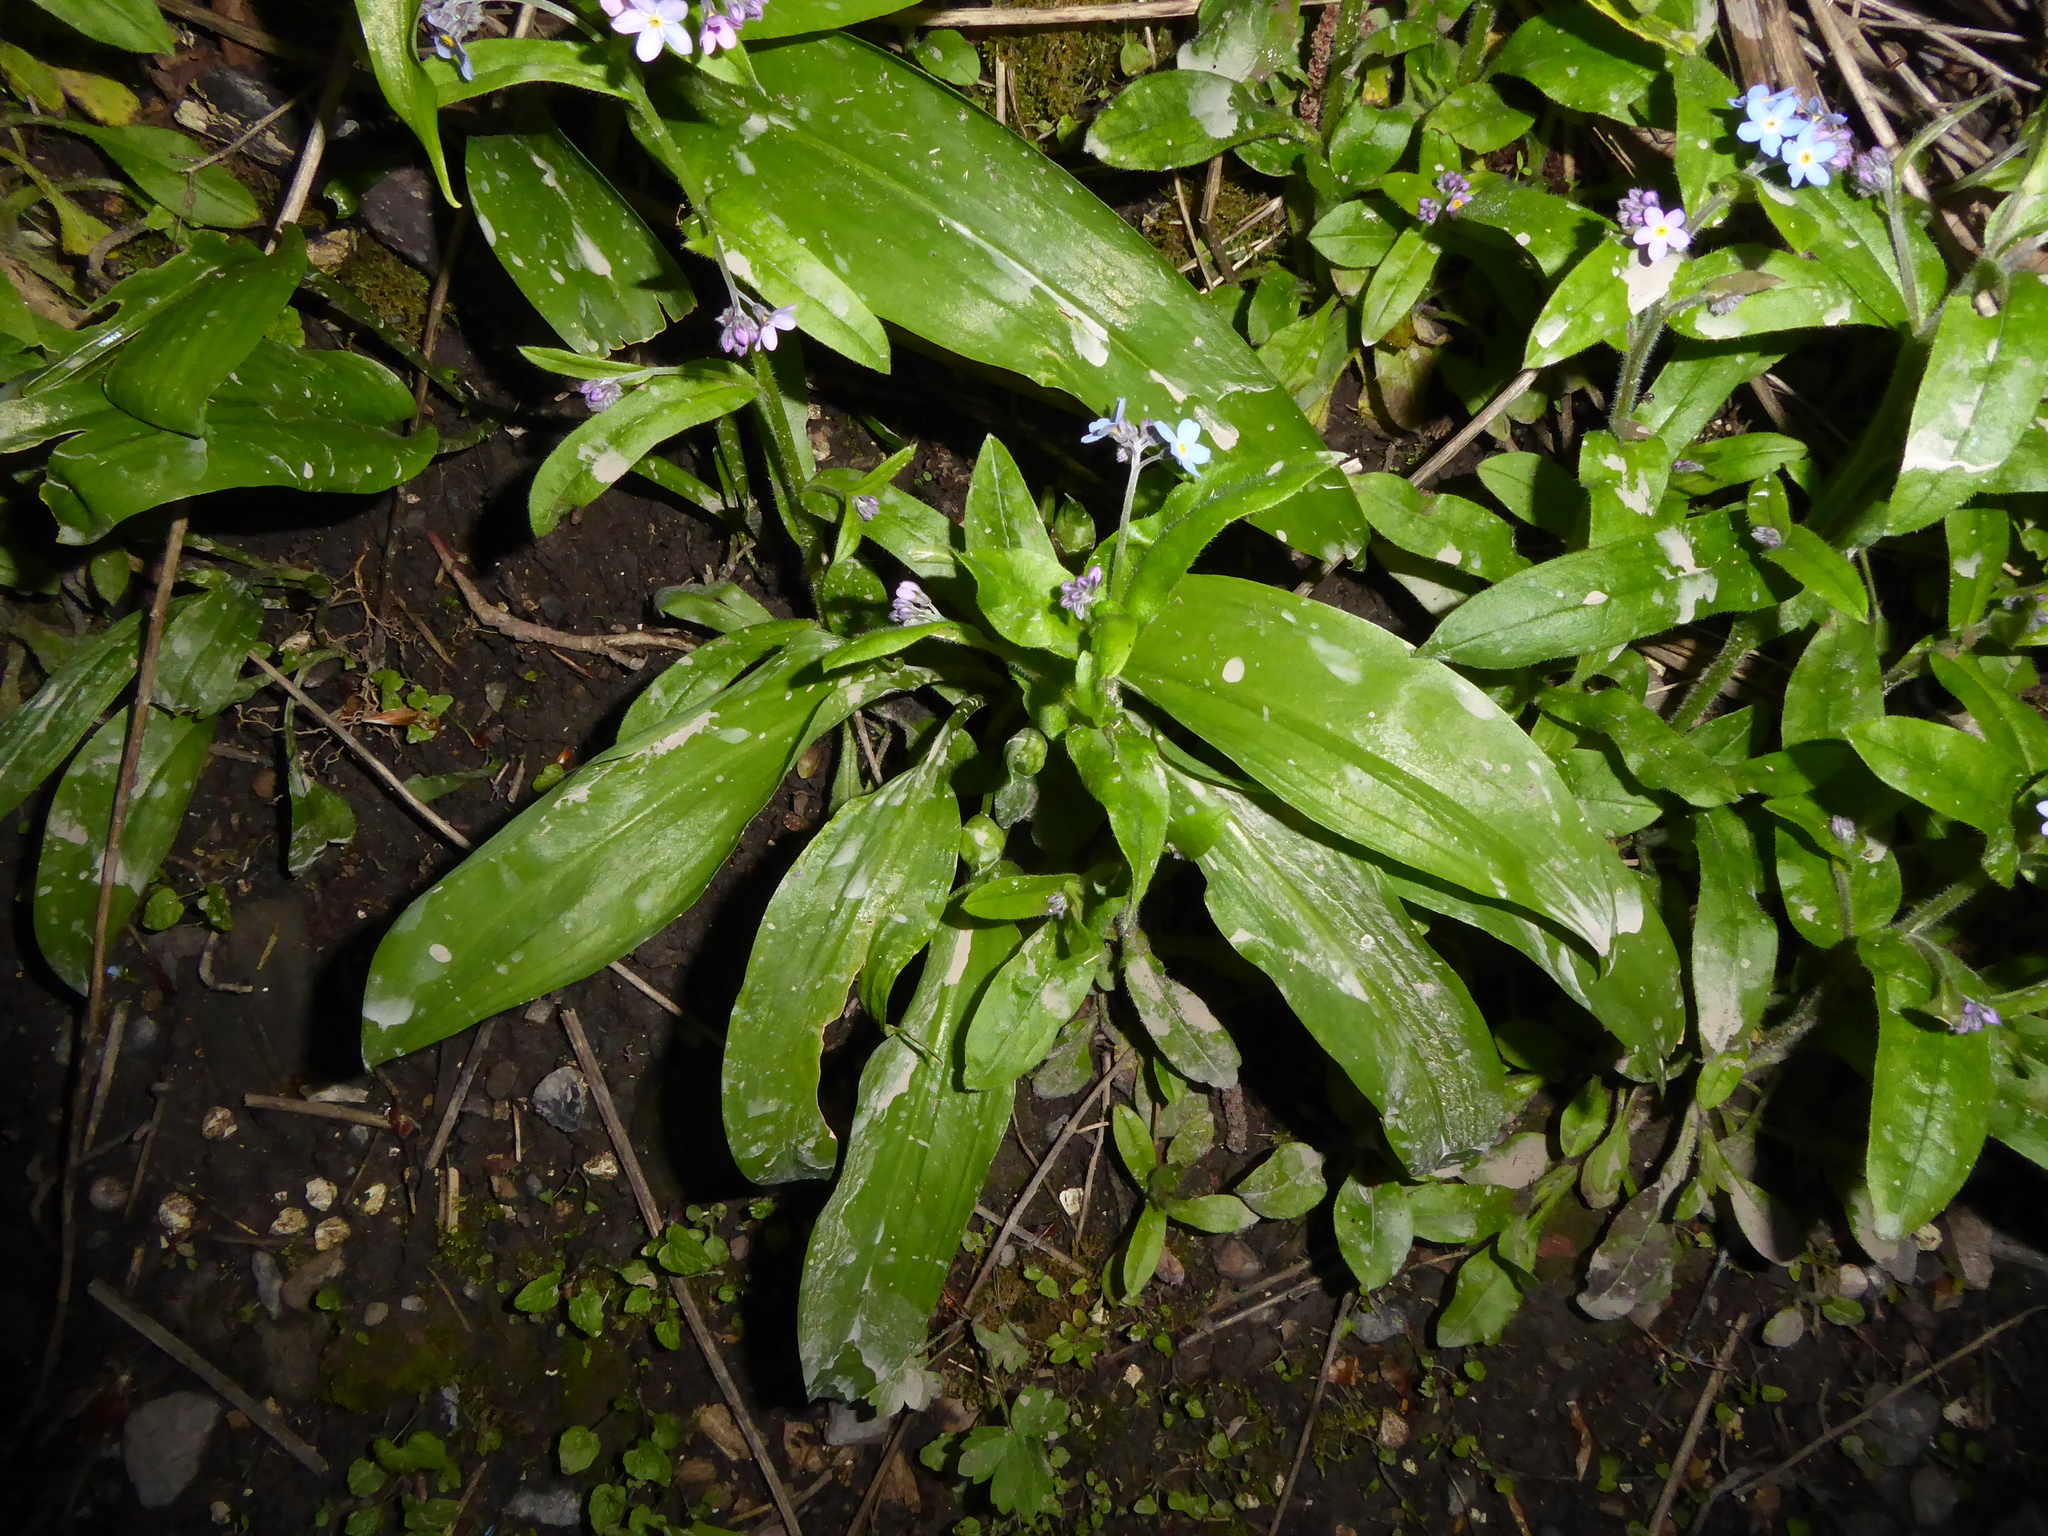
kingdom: Plantae
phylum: Tracheophyta
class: Liliopsida
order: Asparagales
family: Amaryllidaceae
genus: Allium
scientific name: Allium ursinum
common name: Ramsons
